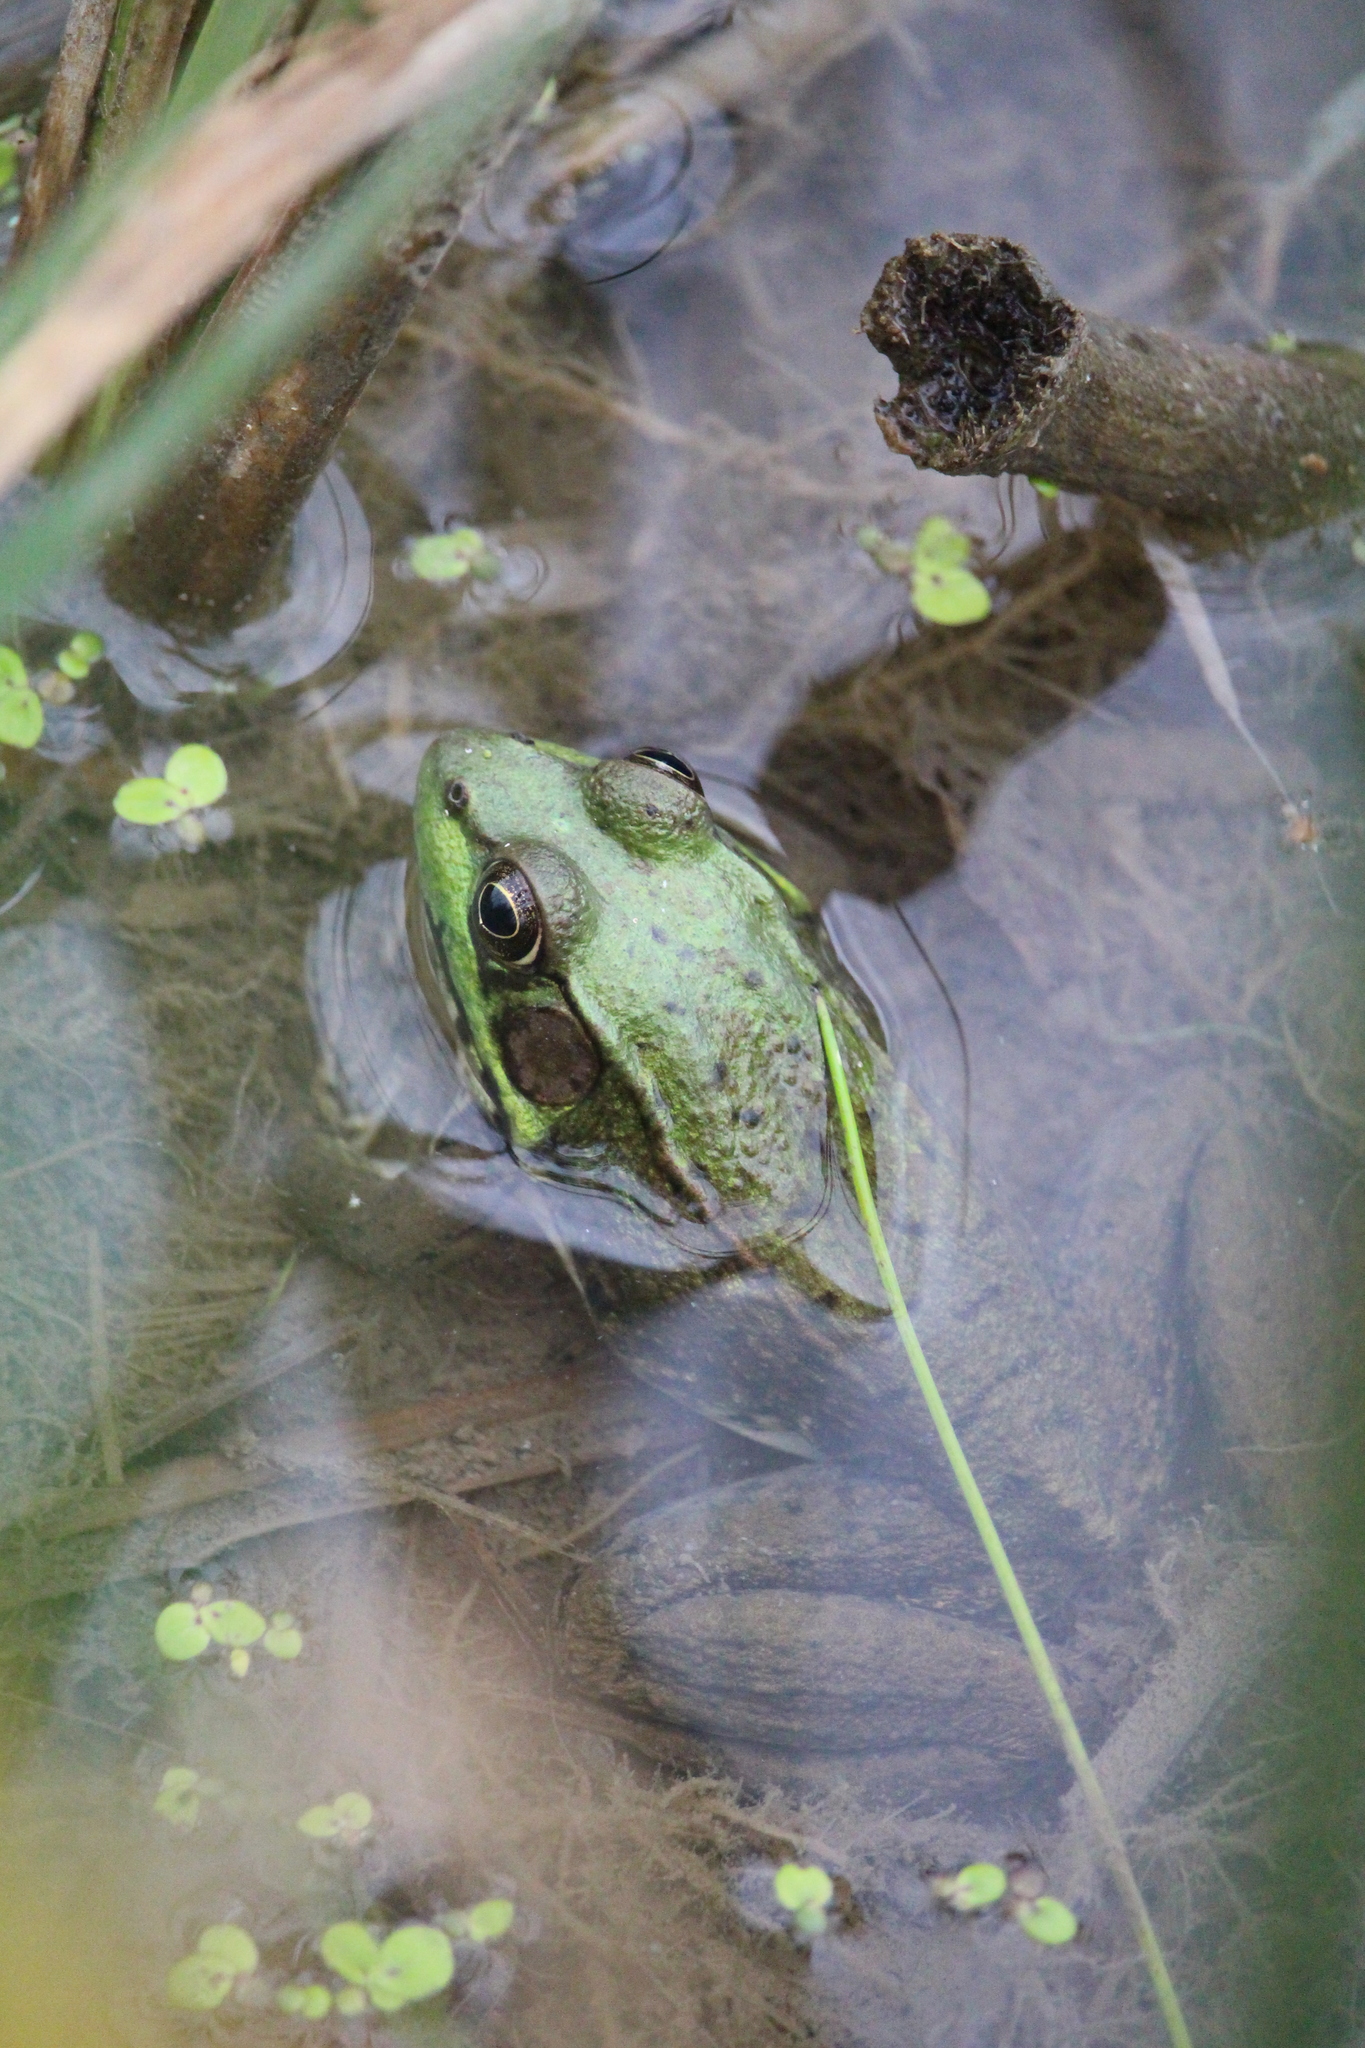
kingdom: Animalia
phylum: Chordata
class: Amphibia
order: Anura
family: Ranidae
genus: Lithobates
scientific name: Lithobates clamitans
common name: Green frog
